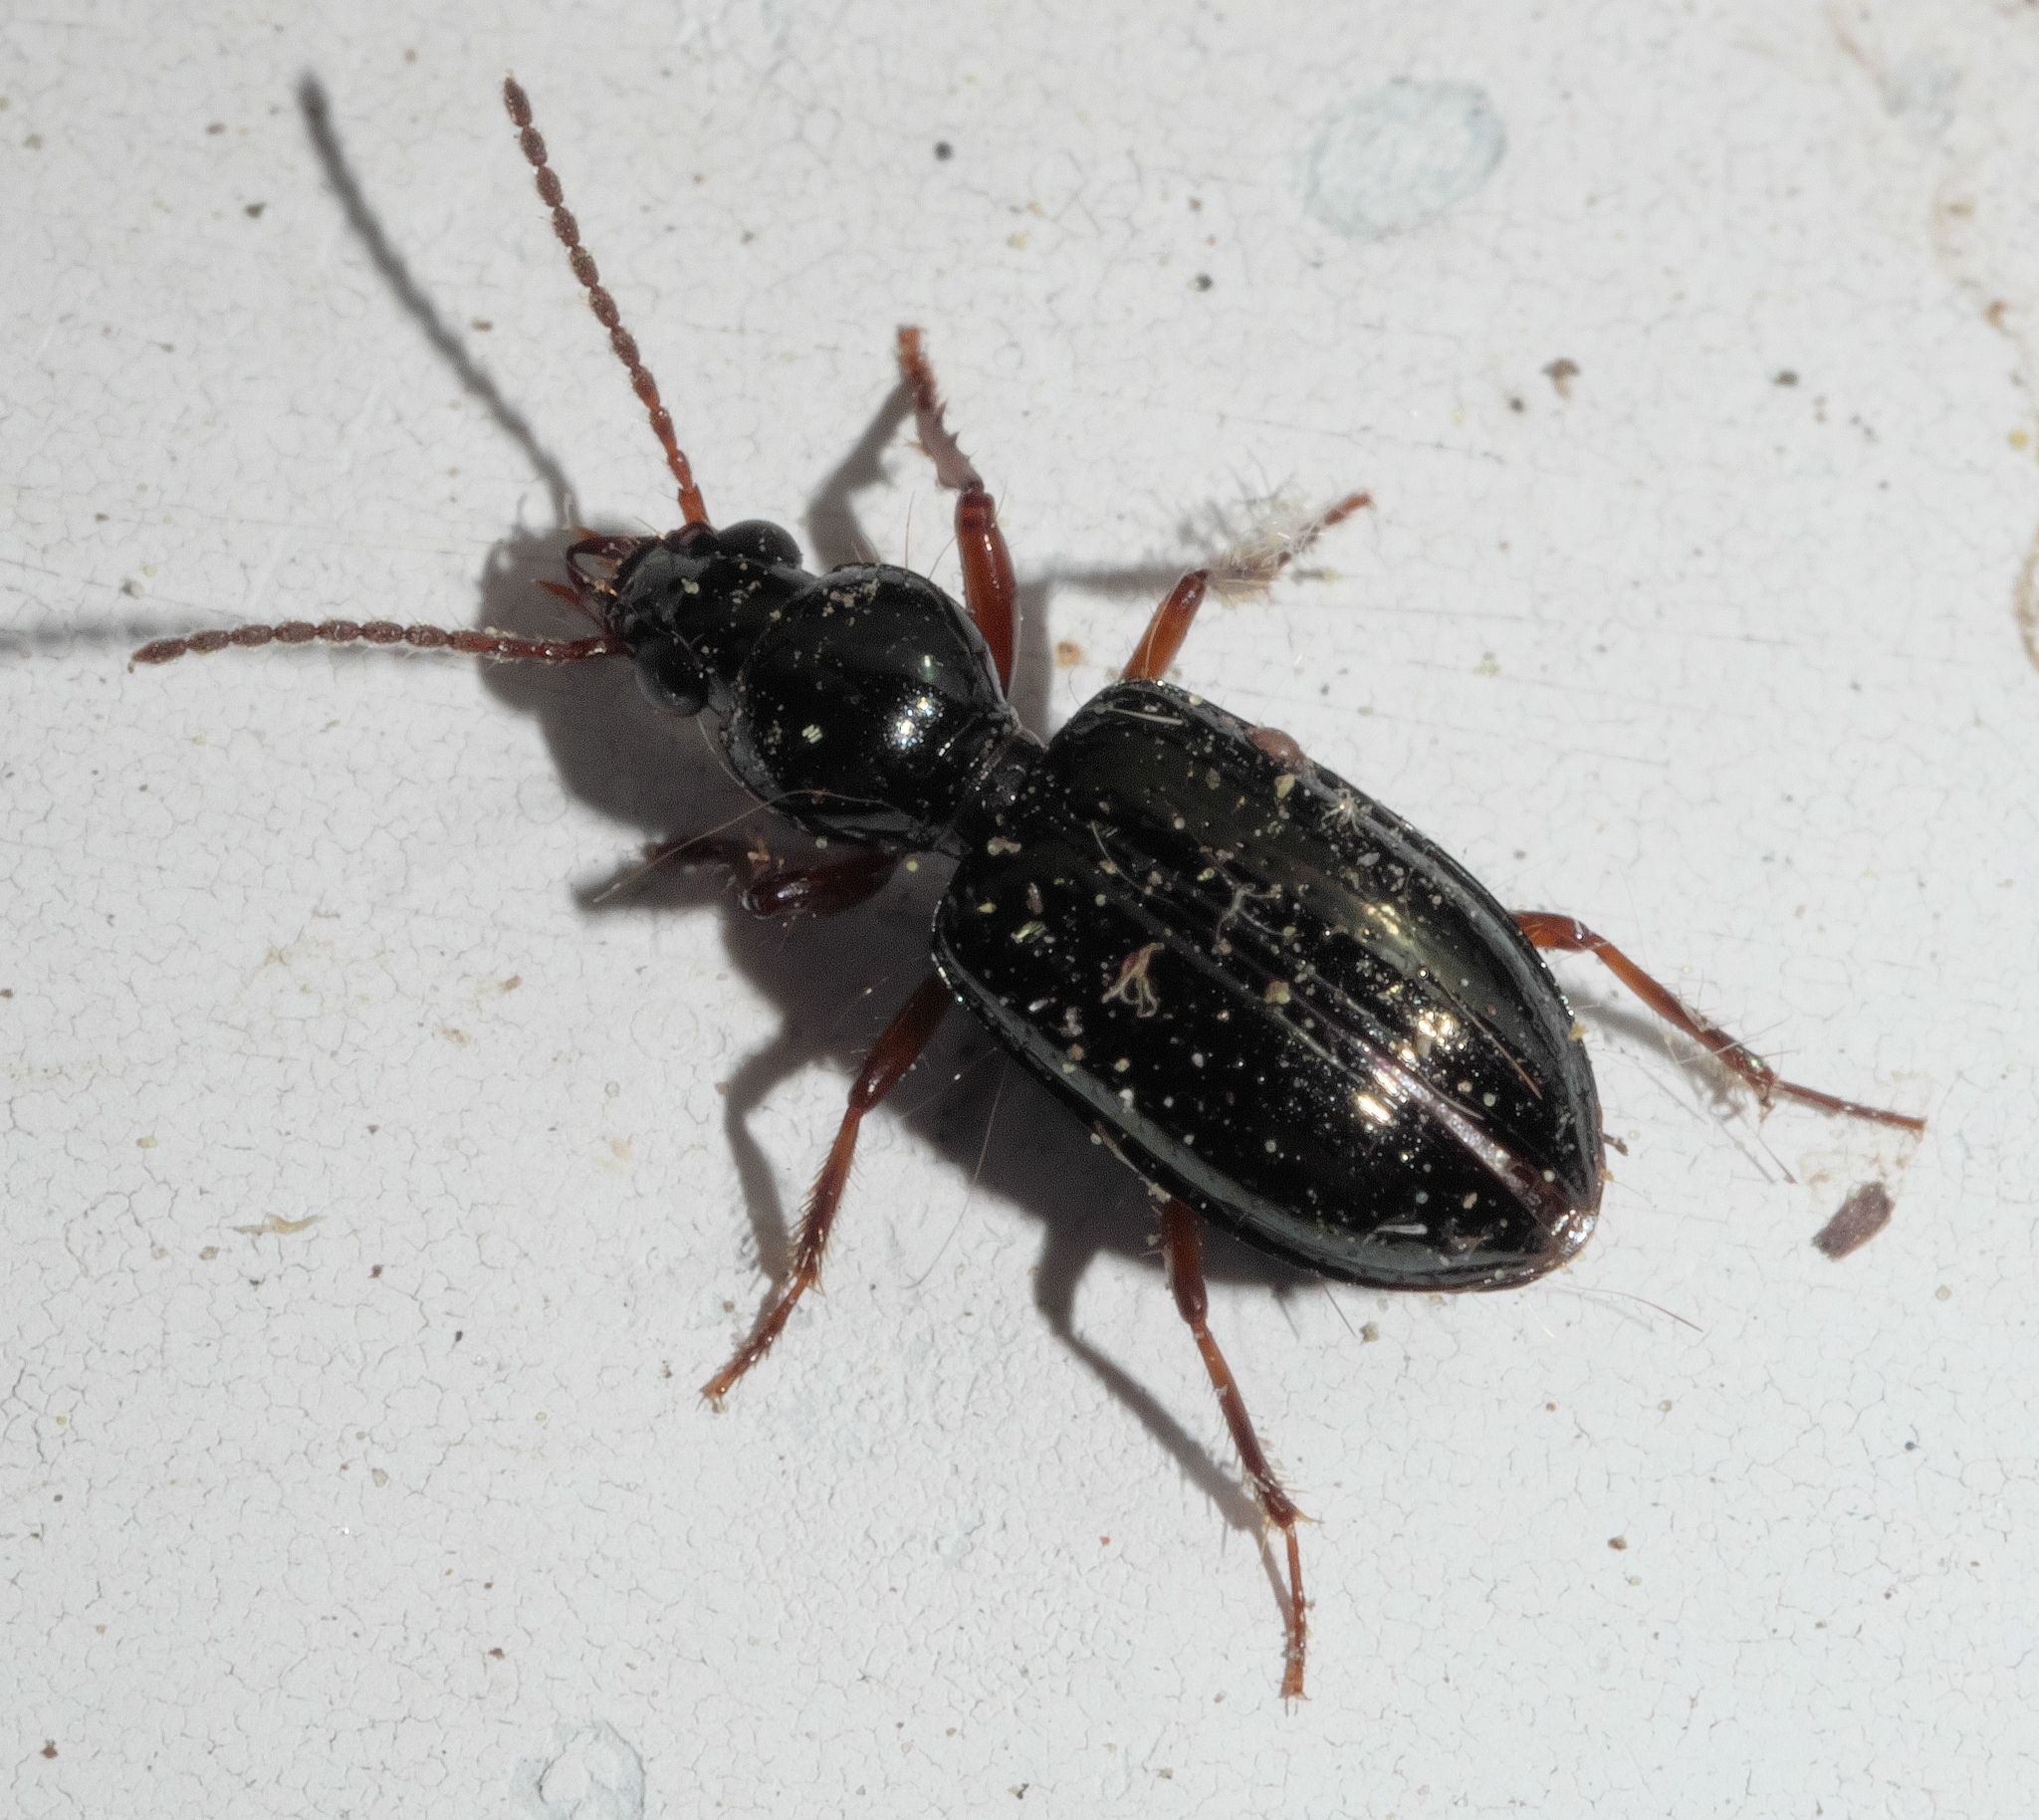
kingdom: Animalia
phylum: Arthropoda
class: Insecta
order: Coleoptera
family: Carabidae
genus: Semiardistomis
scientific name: Semiardistomis viridis
